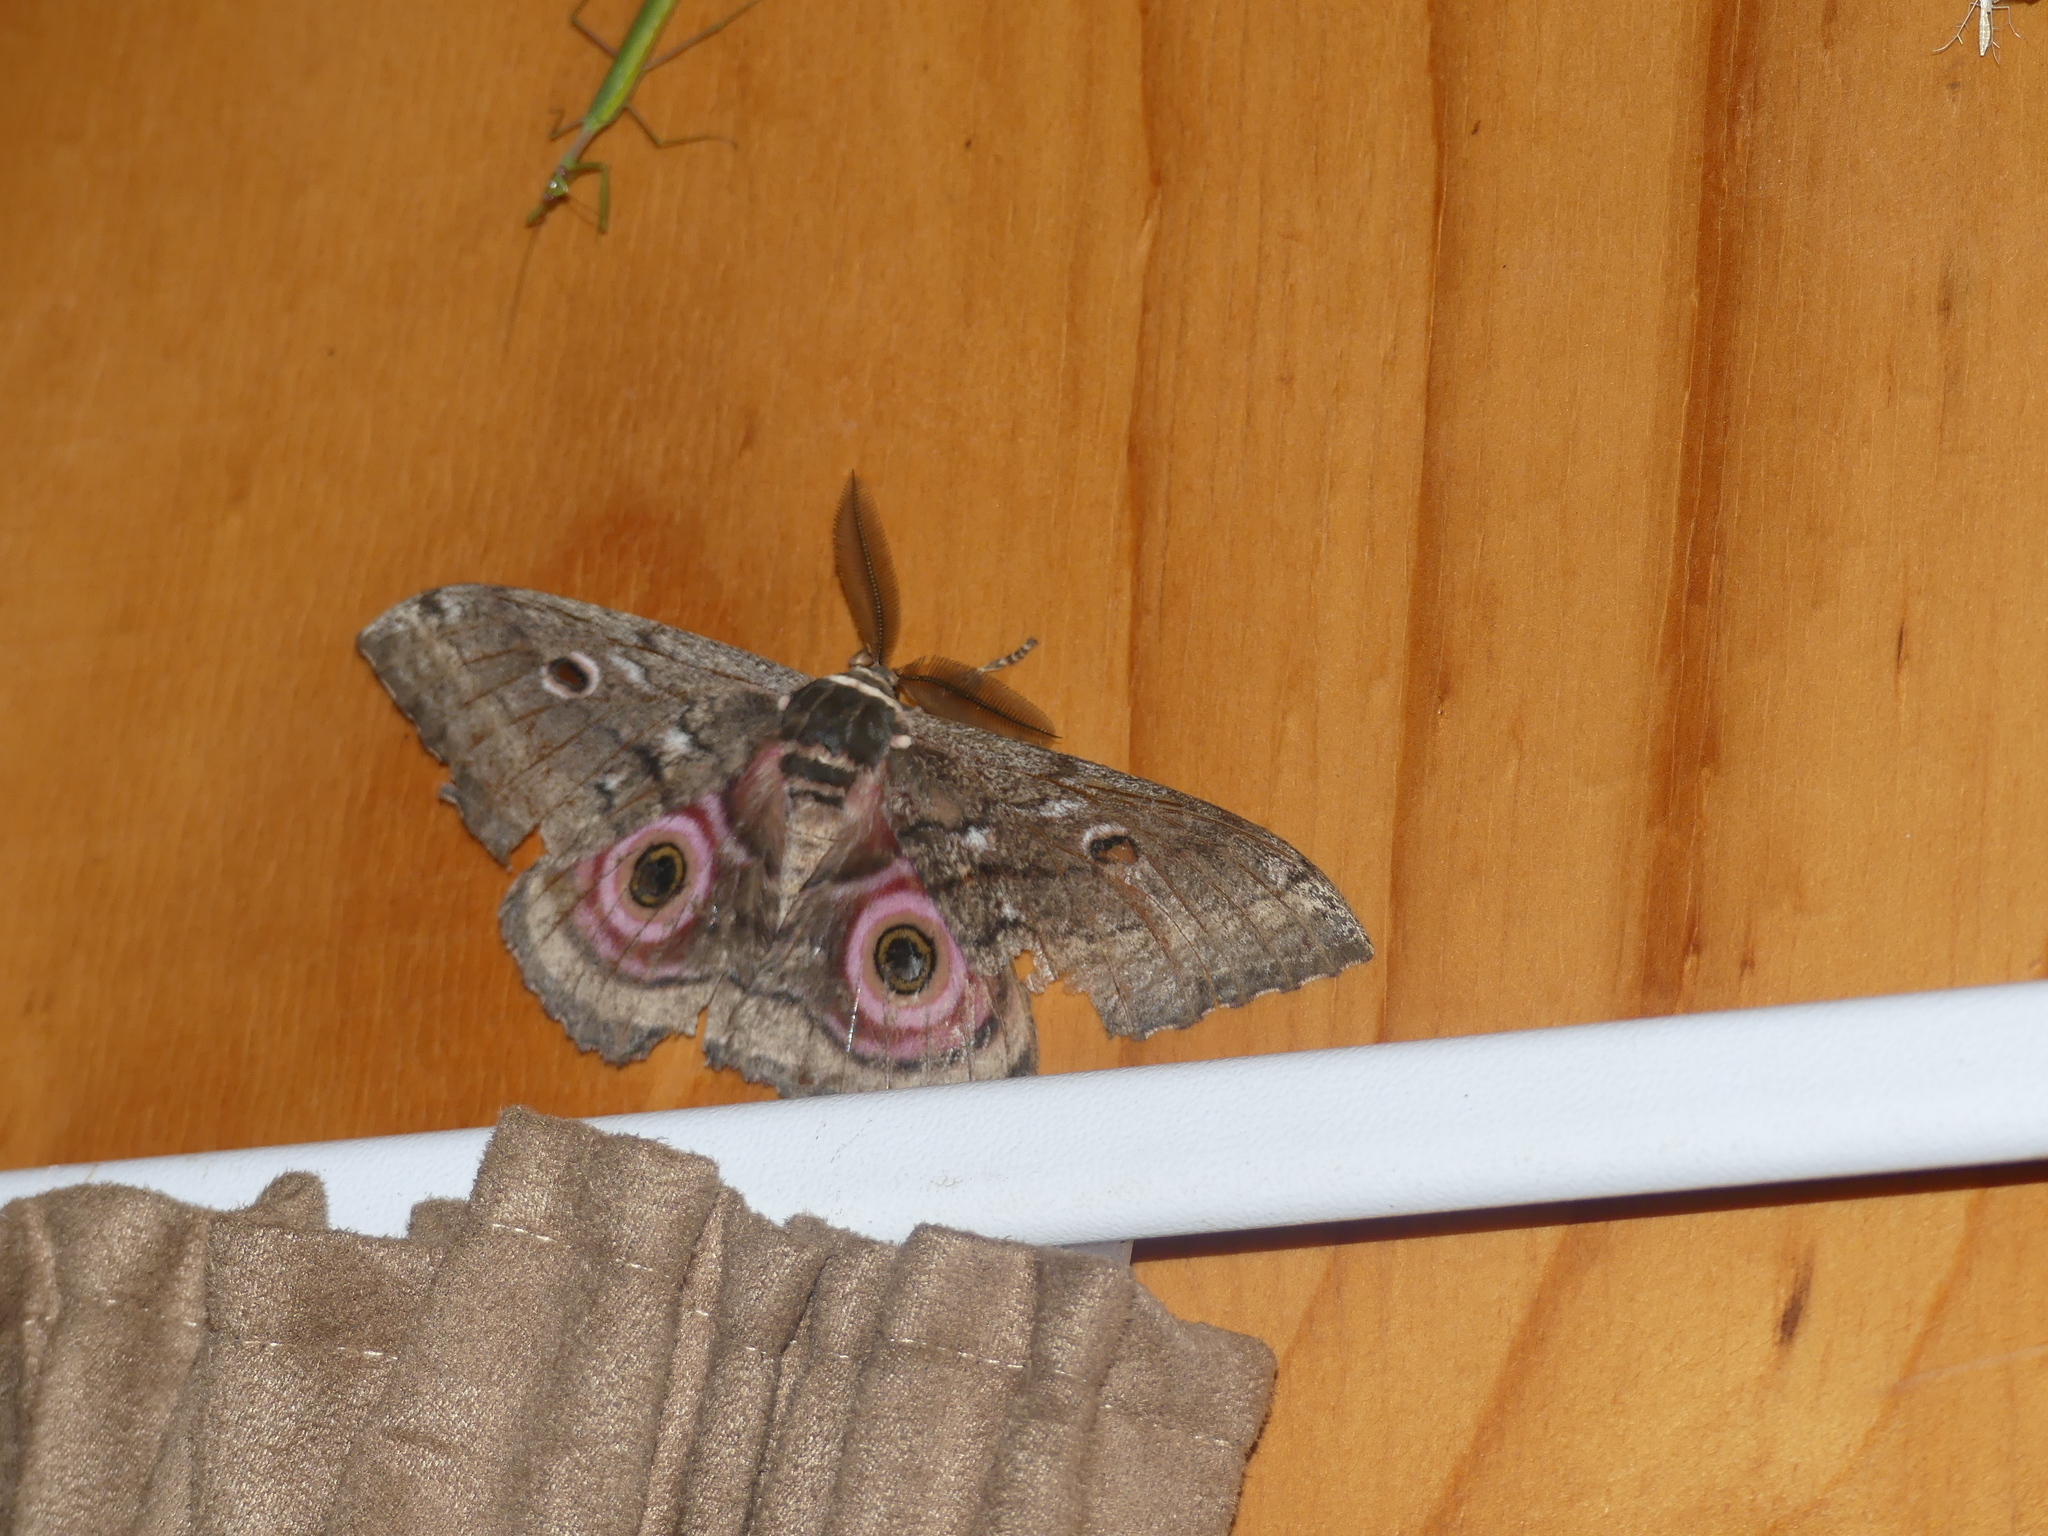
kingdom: Animalia
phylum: Arthropoda
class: Insecta
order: Lepidoptera
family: Saturniidae
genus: Gynanisa
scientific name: Gynanisa maja
